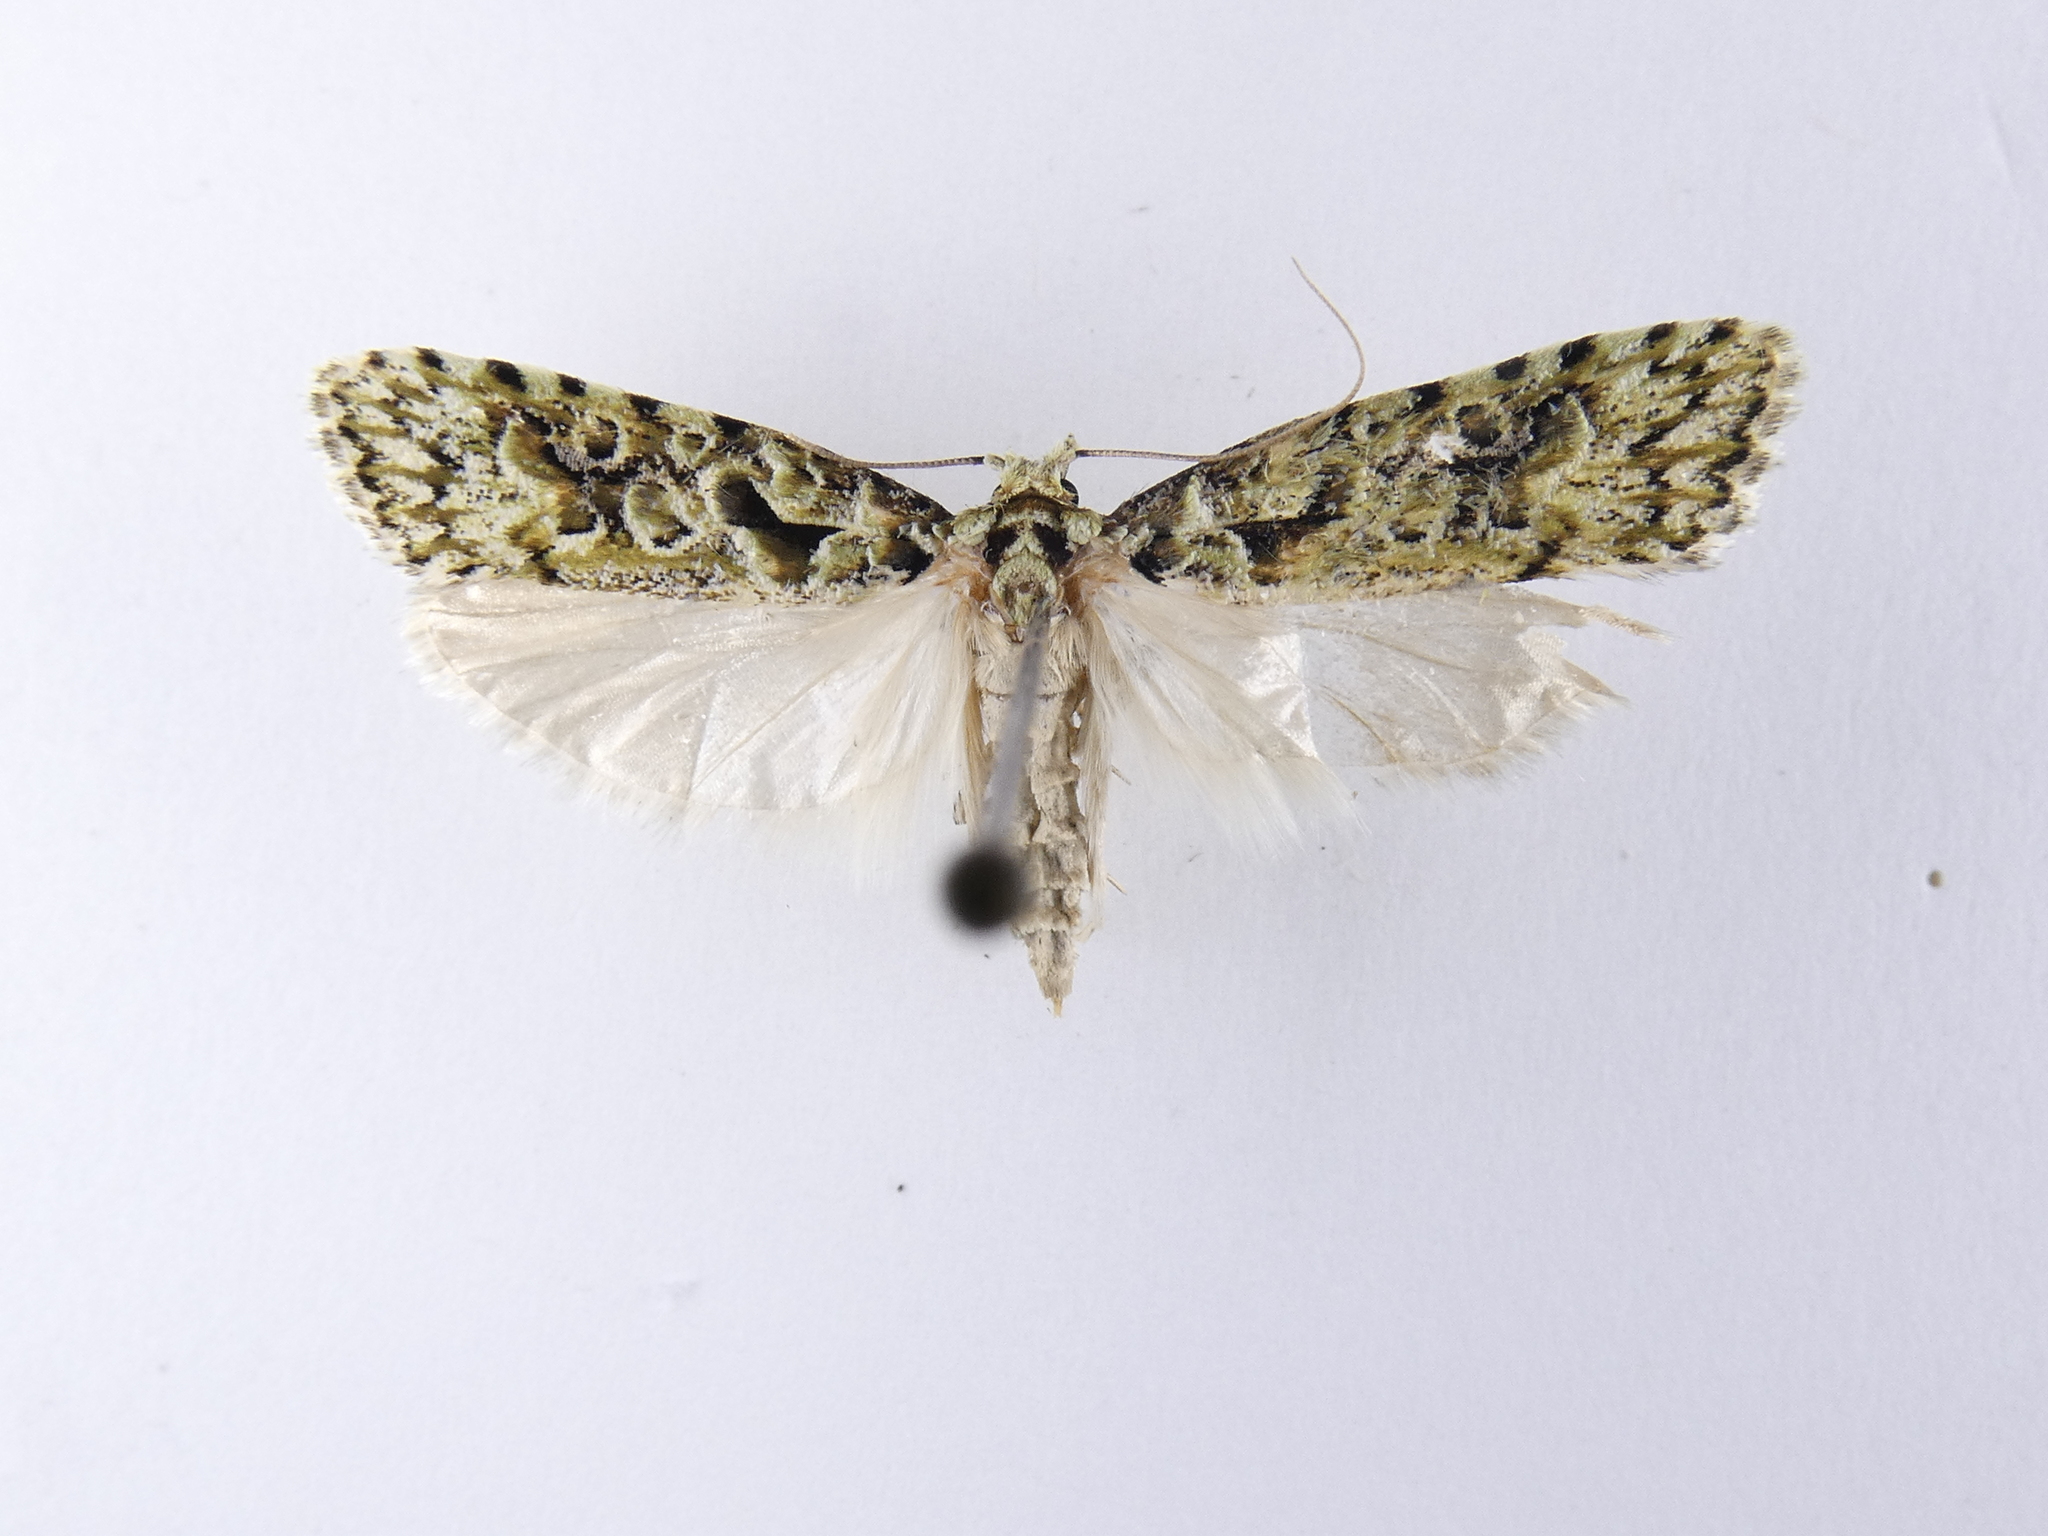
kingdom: Animalia
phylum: Arthropoda
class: Insecta
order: Lepidoptera
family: Carposinidae
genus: Carposina
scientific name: Carposina Heterocrossa eriphylla
